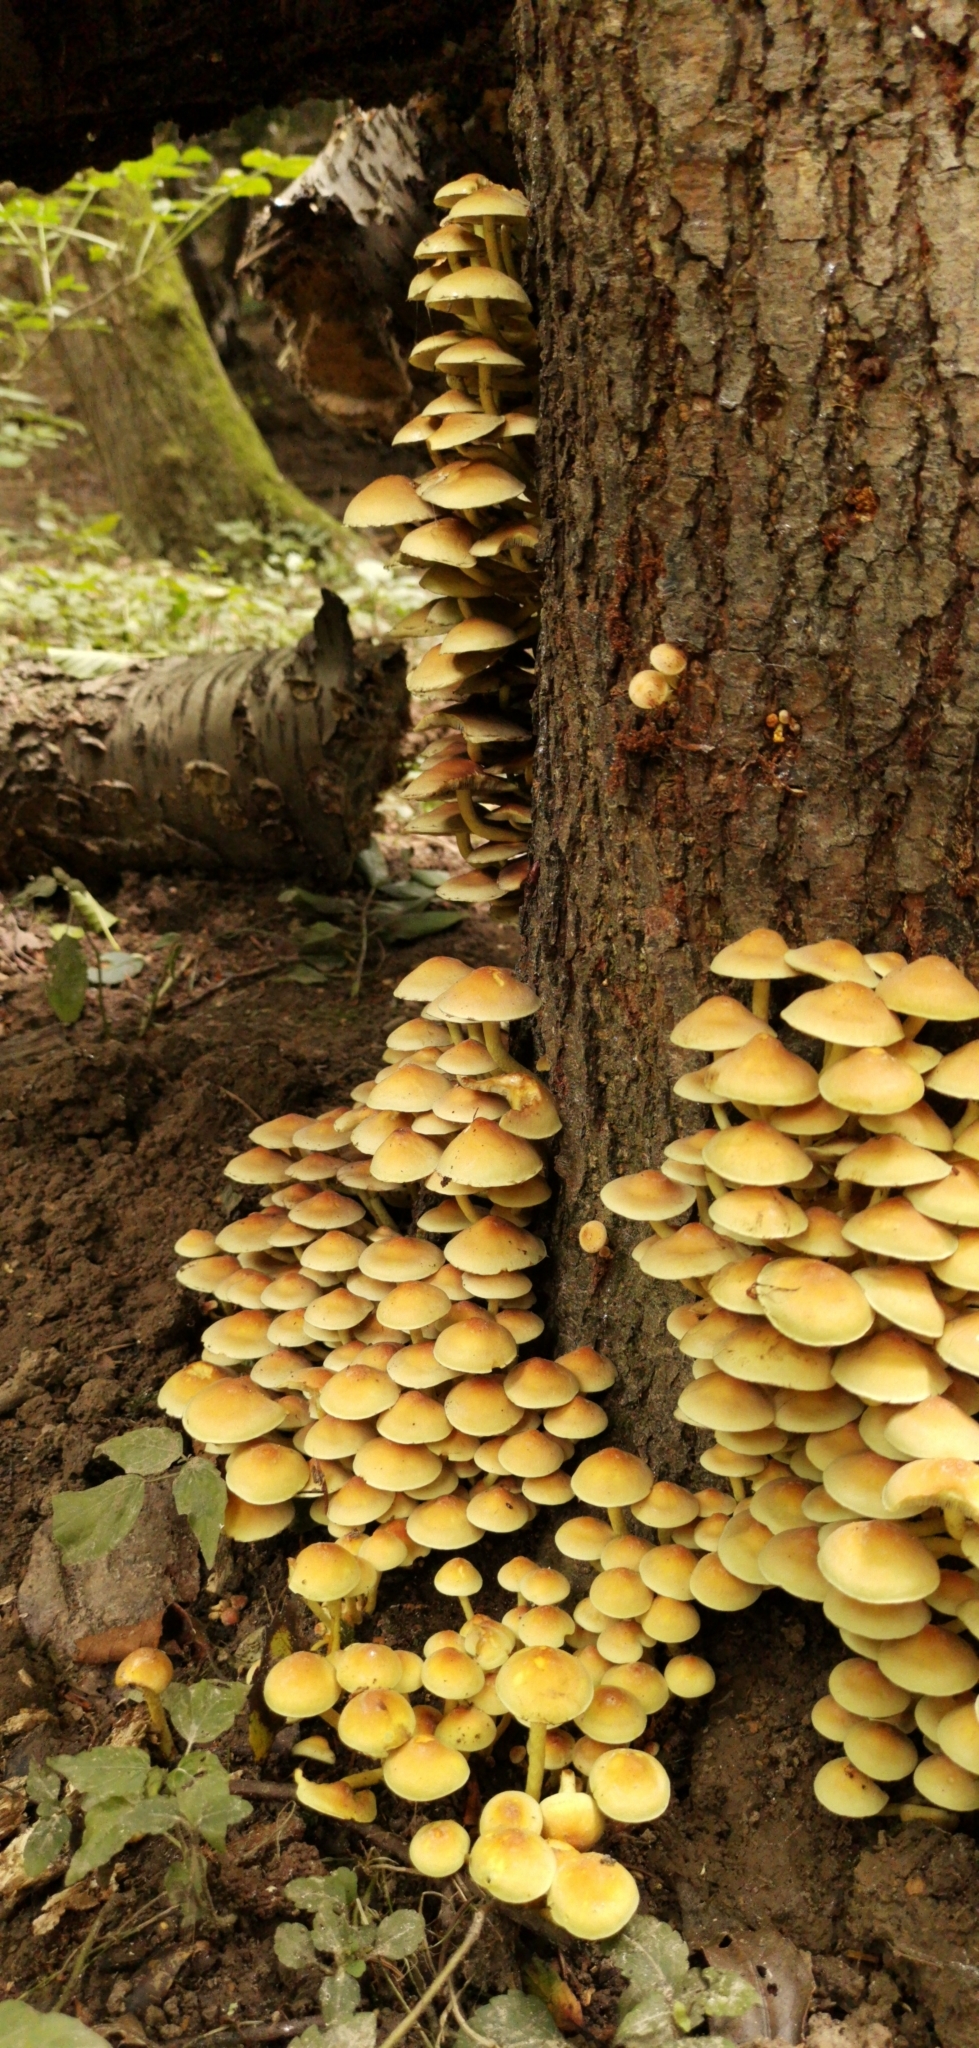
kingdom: Fungi
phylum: Basidiomycota
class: Agaricomycetes
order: Agaricales
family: Strophariaceae
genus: Hypholoma
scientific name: Hypholoma fasciculare
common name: Sulphur tuft
